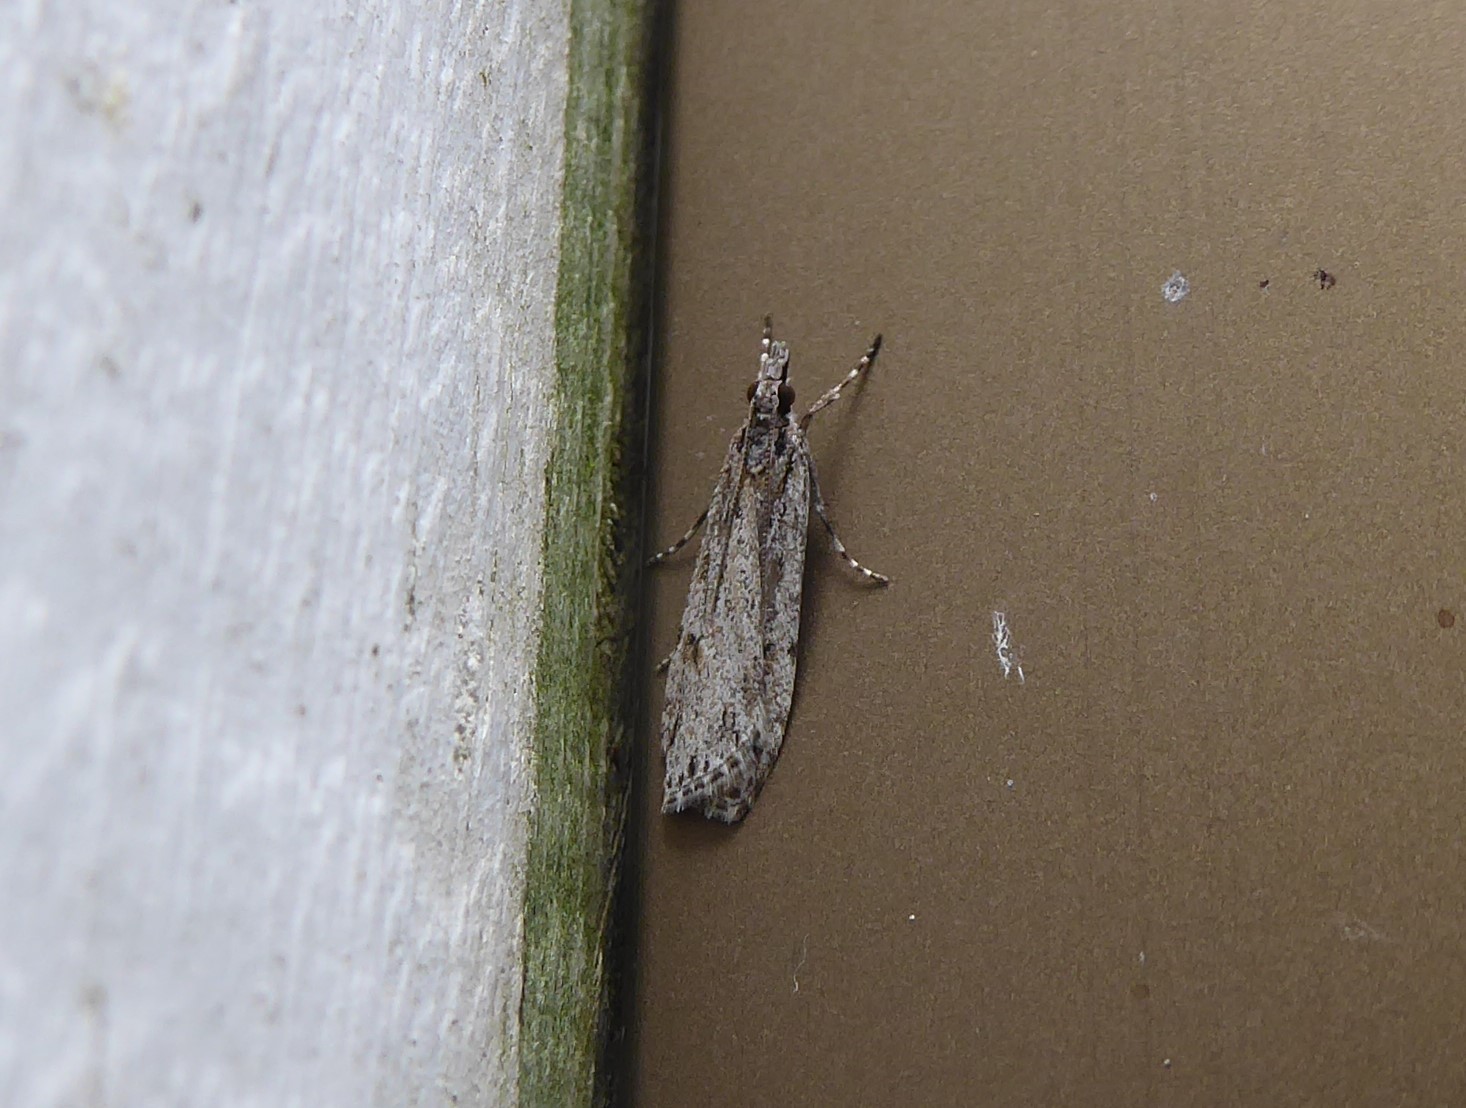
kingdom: Animalia
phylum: Arthropoda
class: Insecta
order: Lepidoptera
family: Crambidae
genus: Scoparia
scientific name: Scoparia chalicodes
